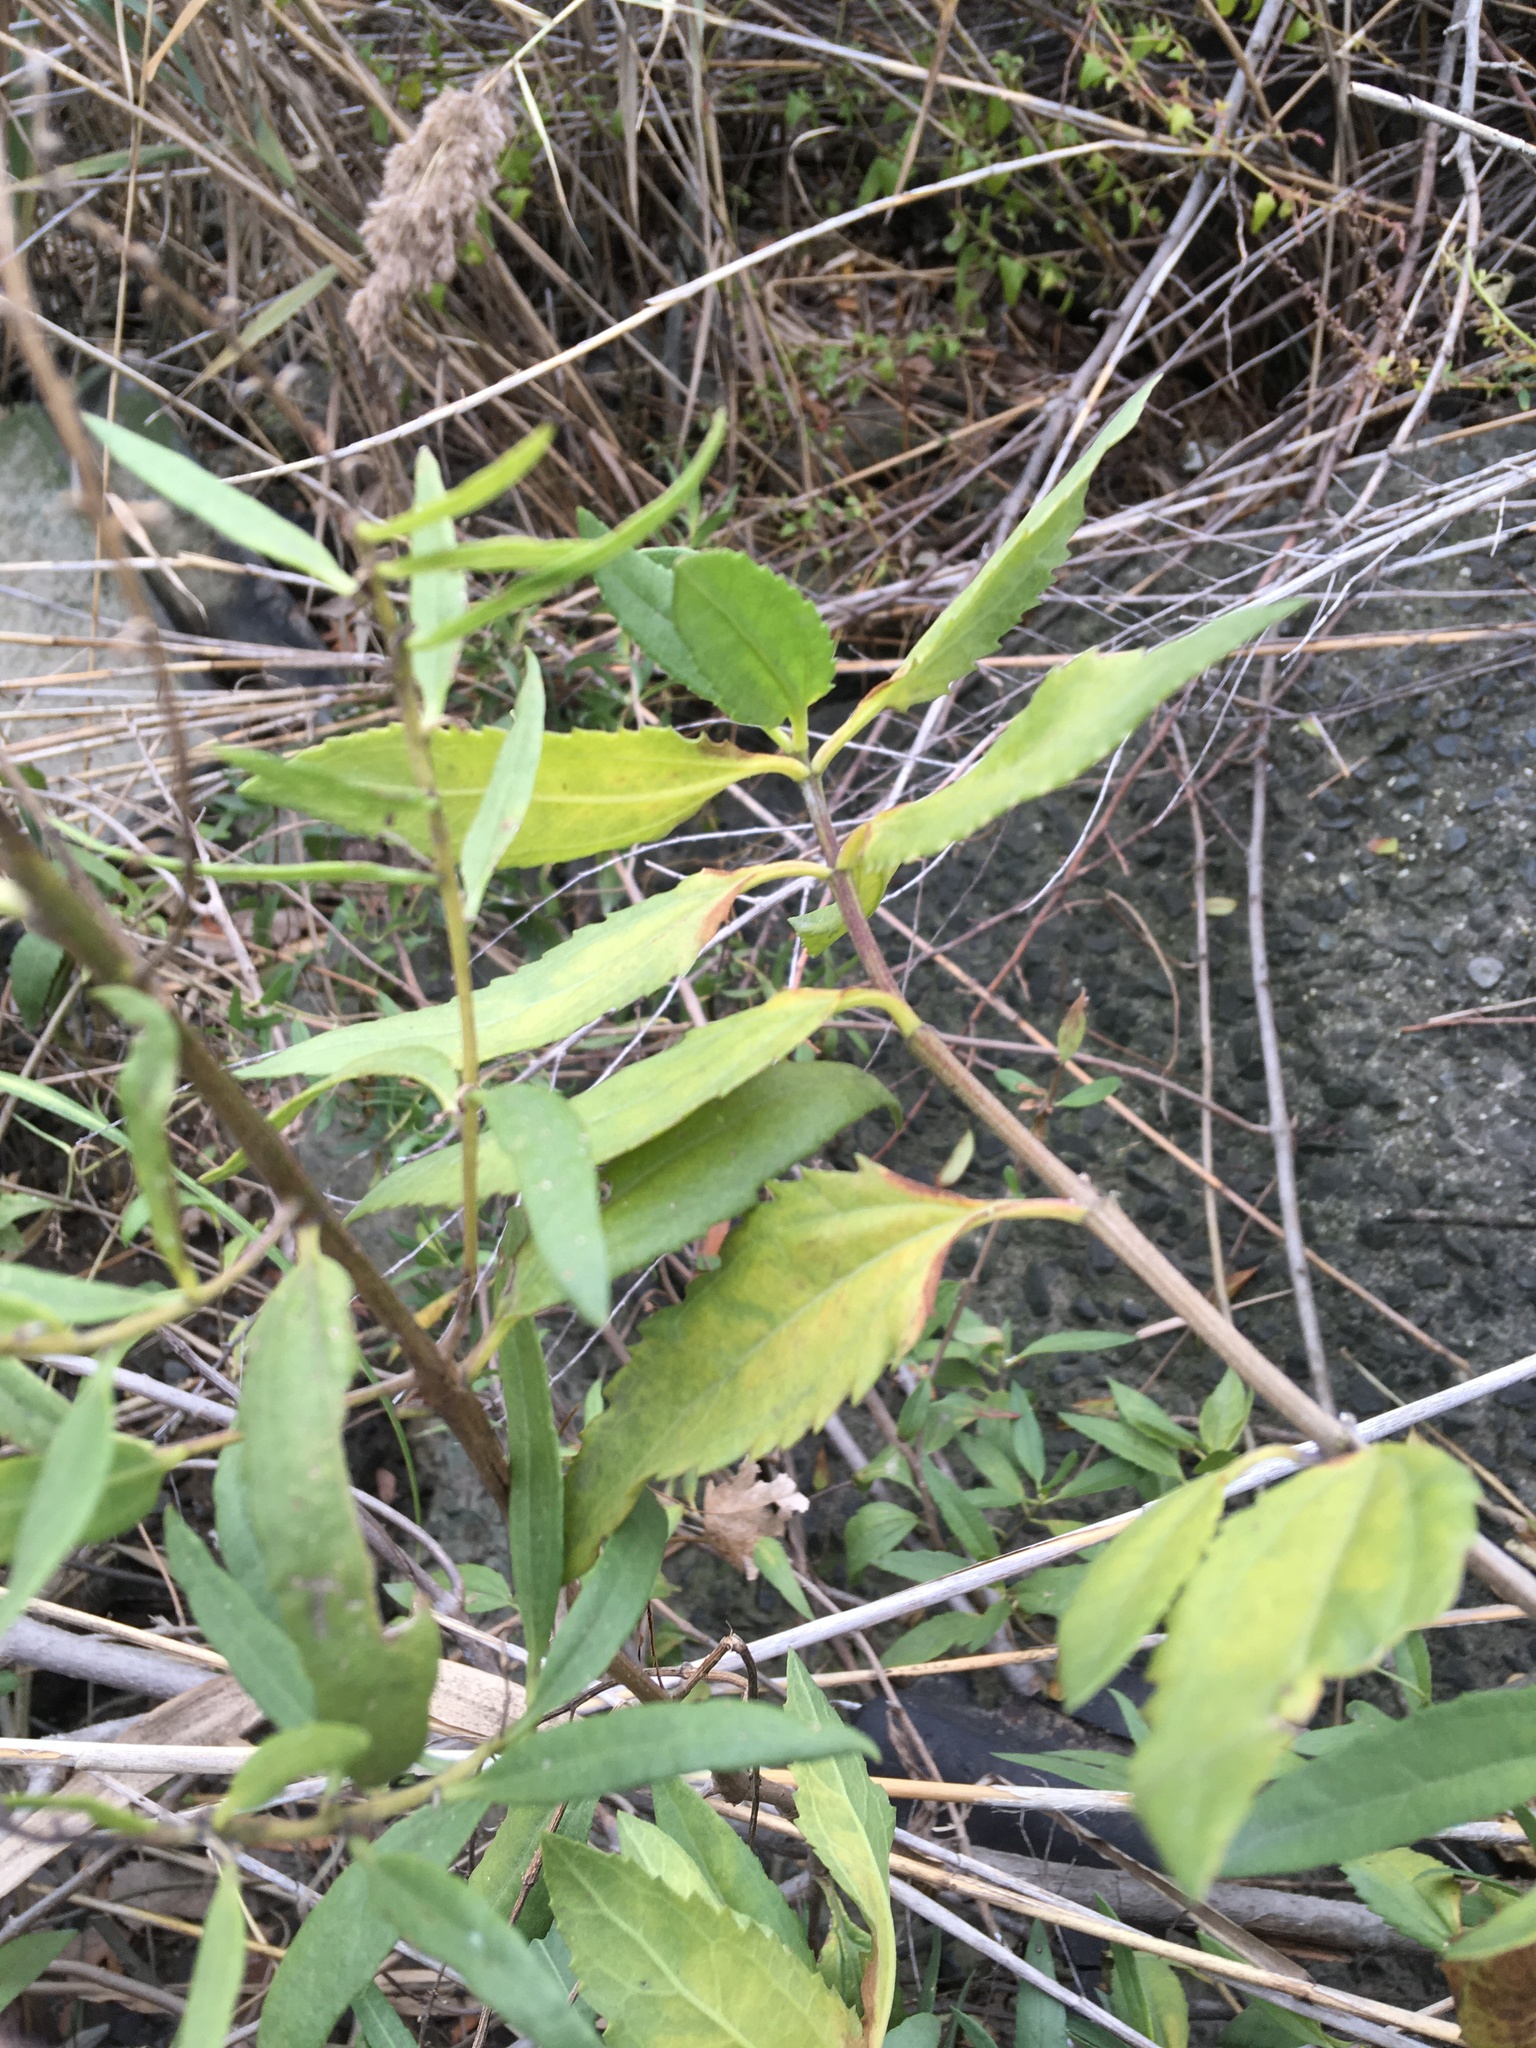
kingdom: Plantae
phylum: Tracheophyta
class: Magnoliopsida
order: Asterales
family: Asteraceae
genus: Iva
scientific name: Iva frutescens
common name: Big-leaved marsh-elder
